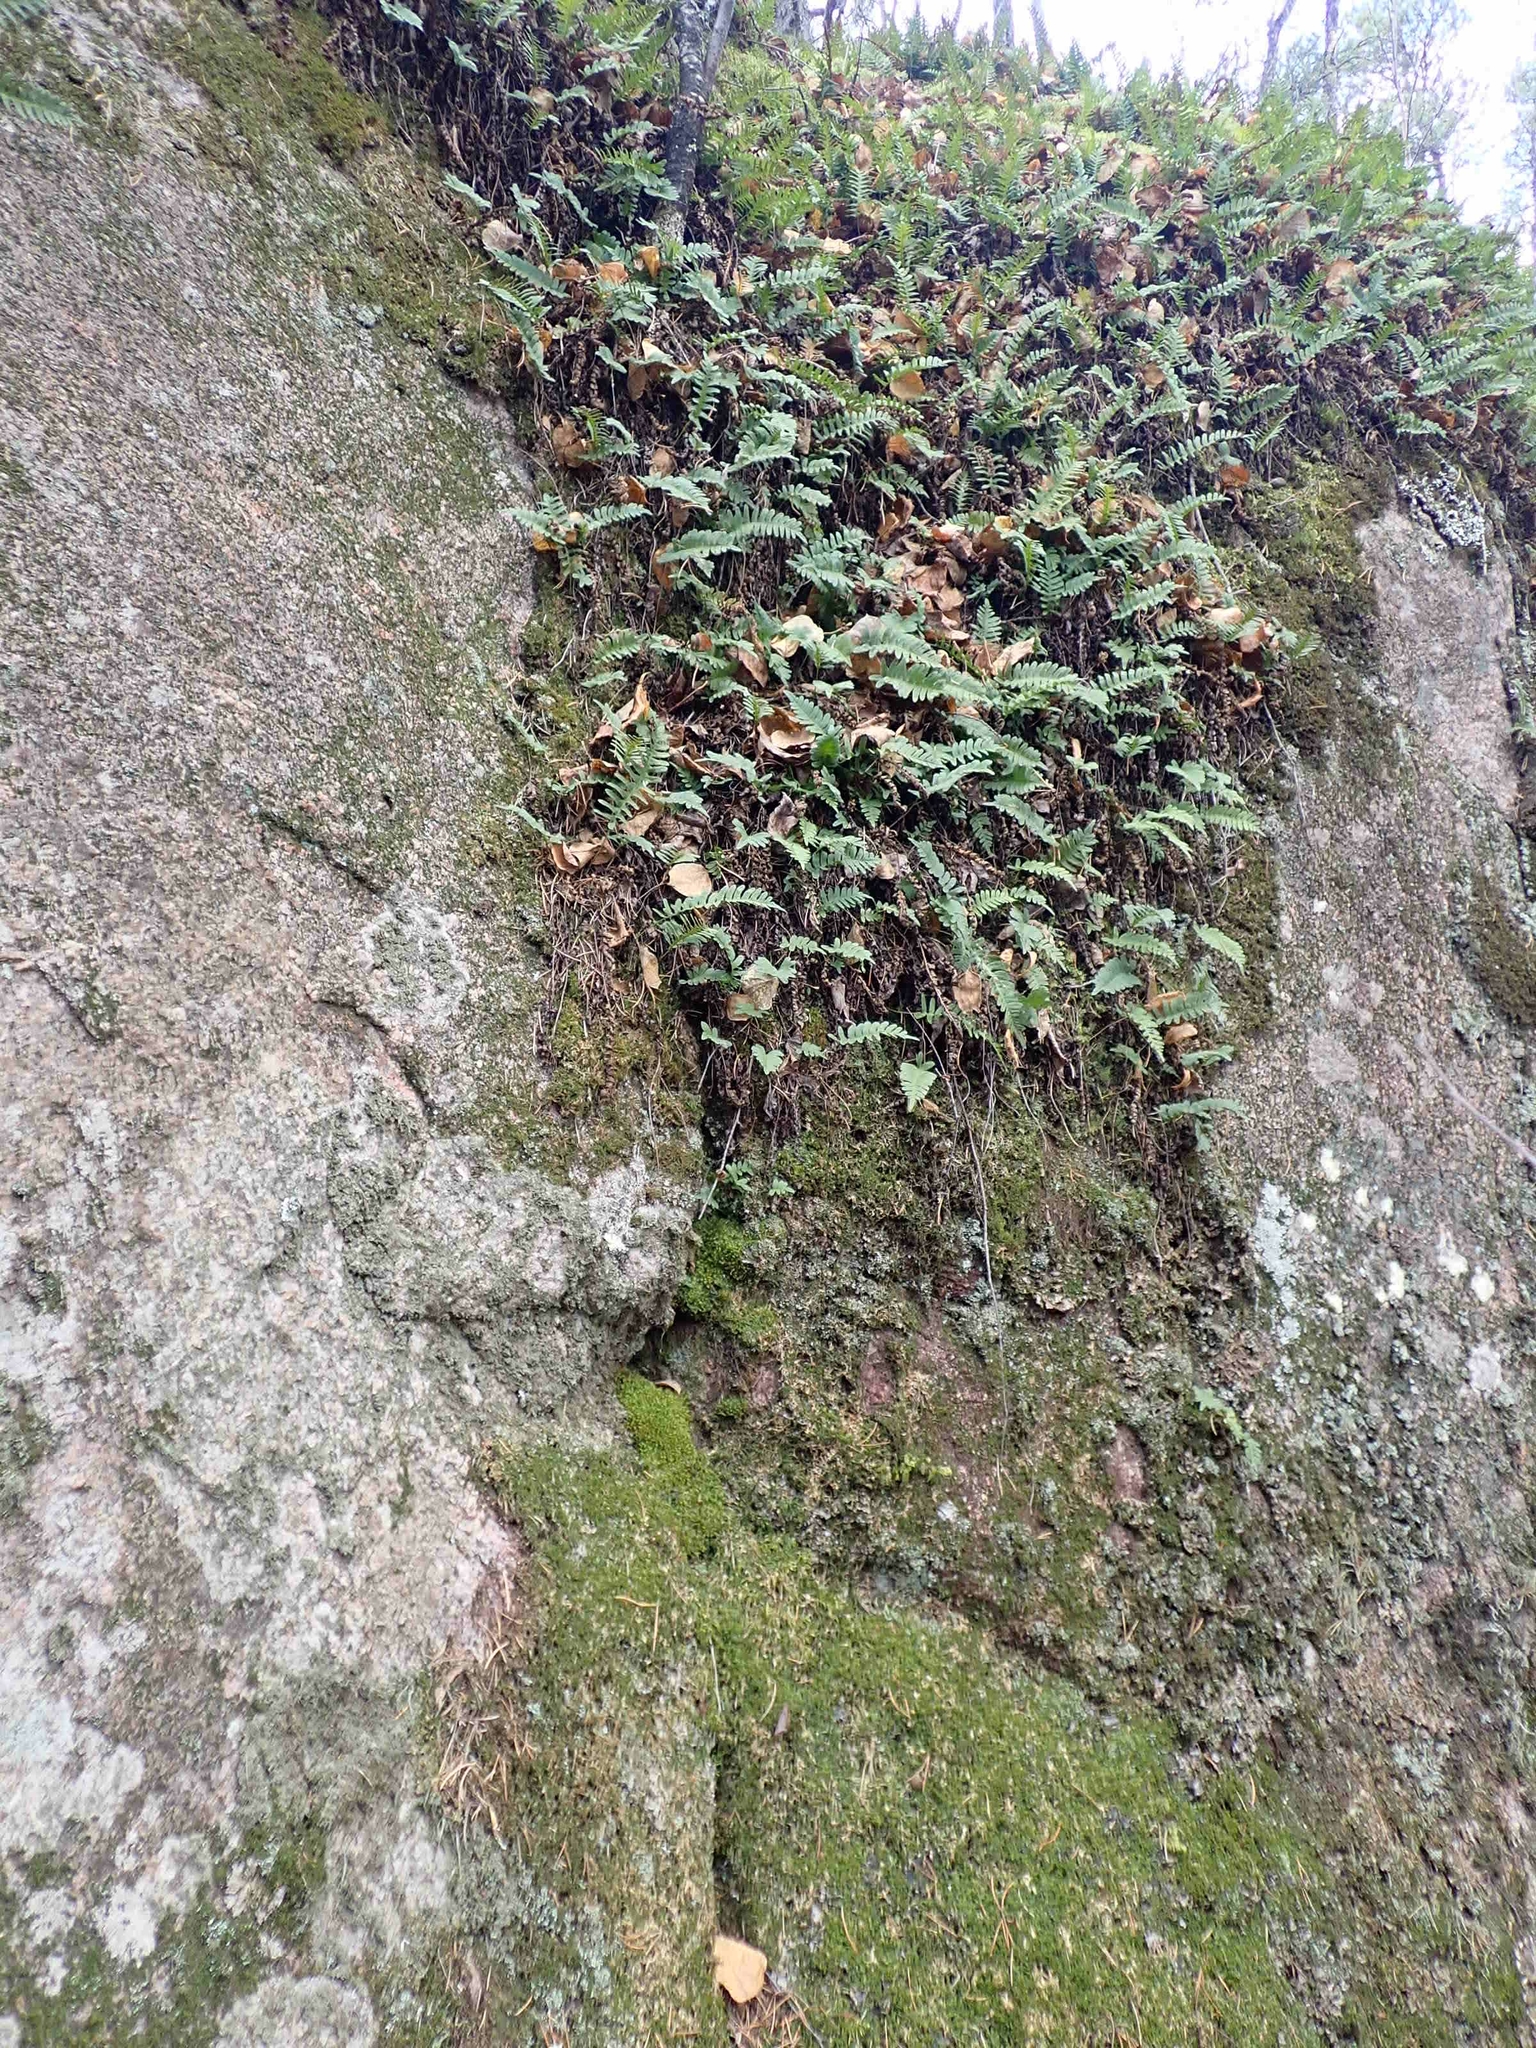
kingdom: Plantae
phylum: Tracheophyta
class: Polypodiopsida
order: Polypodiales
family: Polypodiaceae
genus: Polypodium
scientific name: Polypodium virginianum
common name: American wall fern
